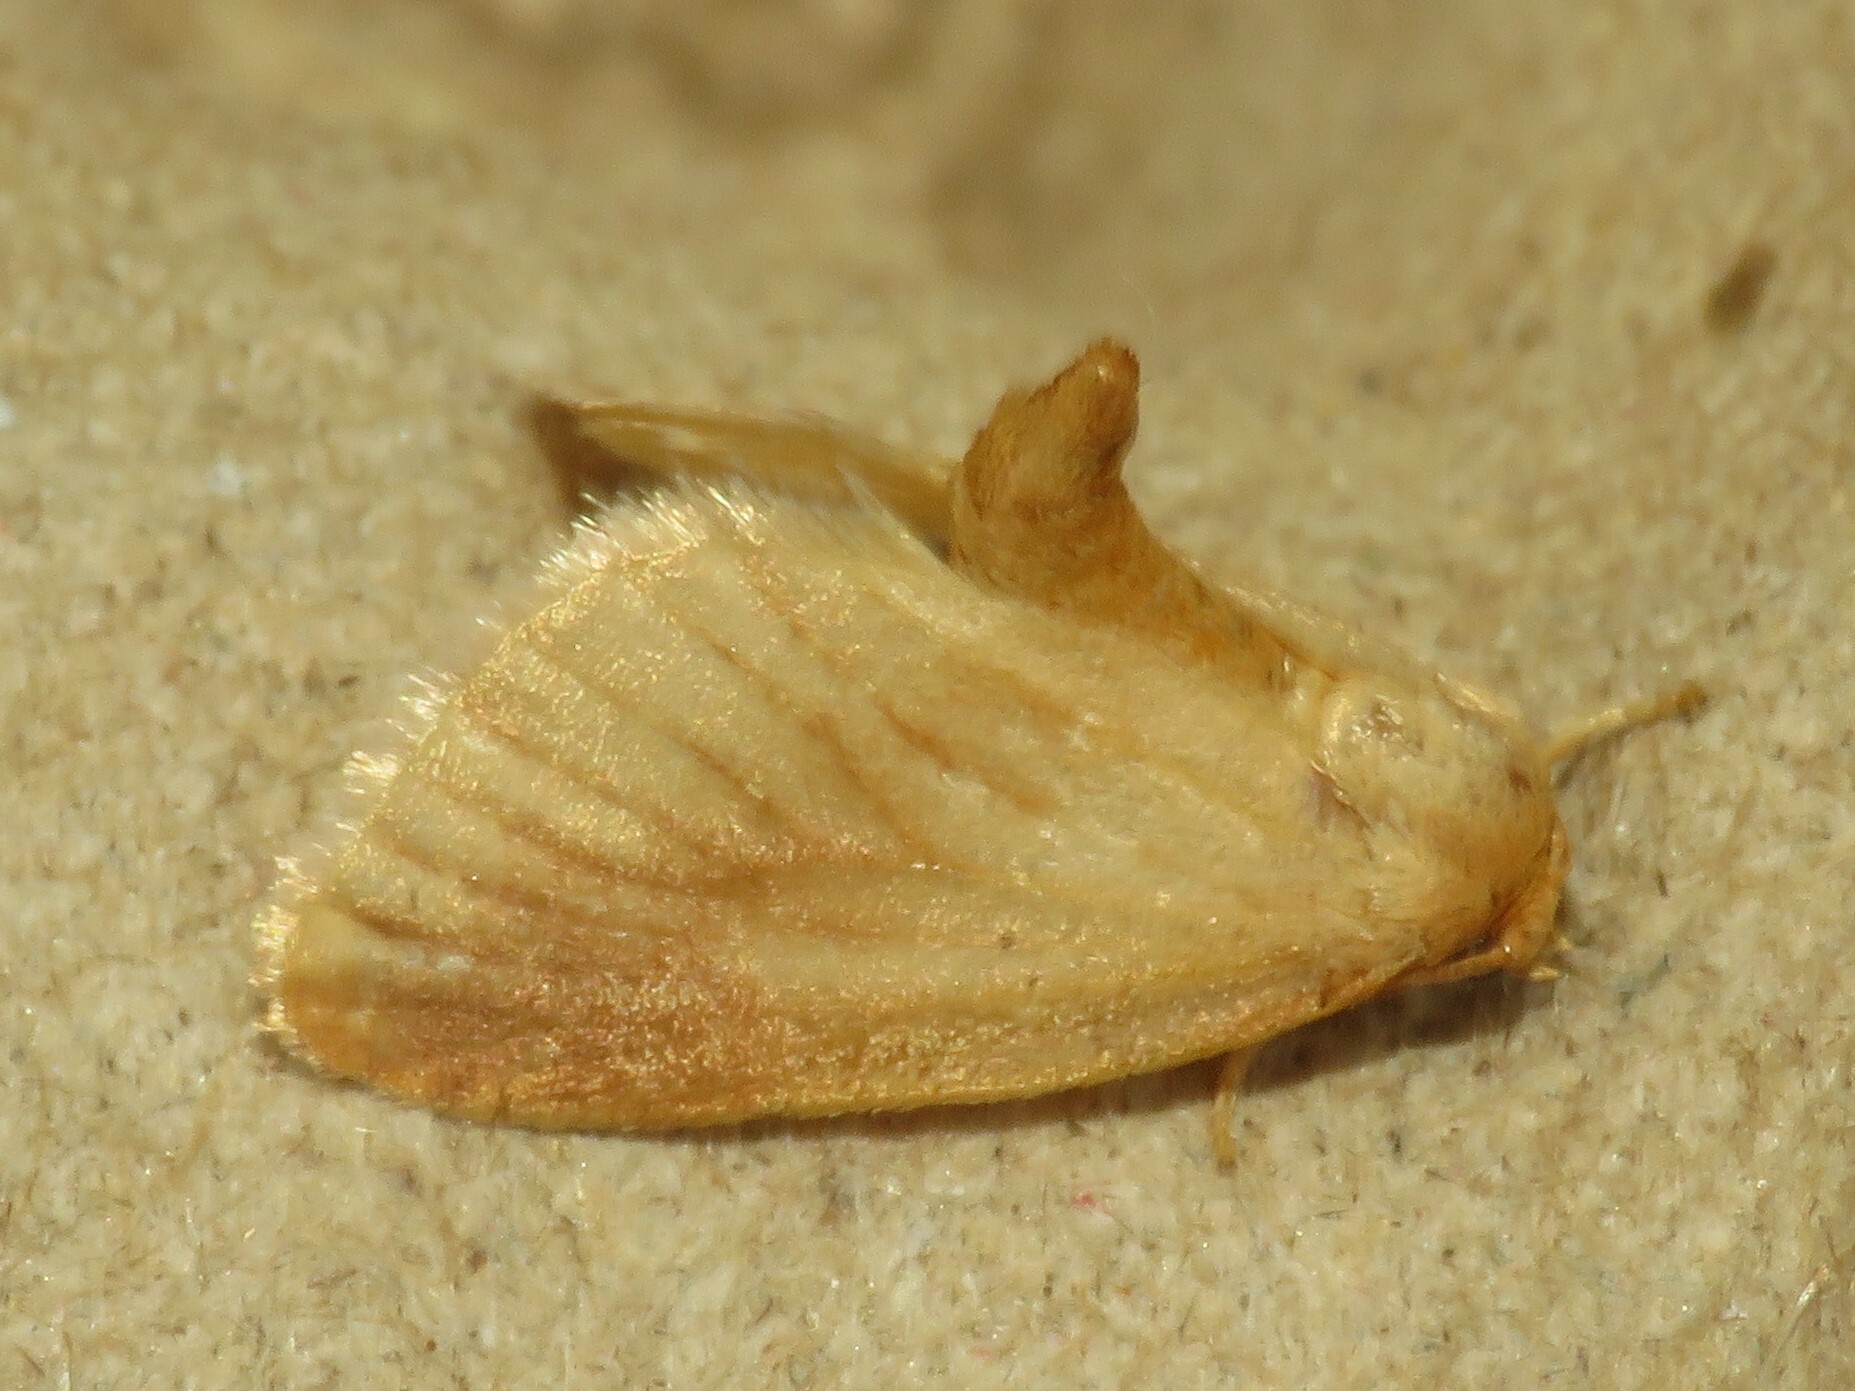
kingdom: Animalia
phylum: Arthropoda
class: Insecta
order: Lepidoptera
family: Limacodidae
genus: Tortricidia
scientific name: Tortricidia testacea
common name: Early button slug moth
